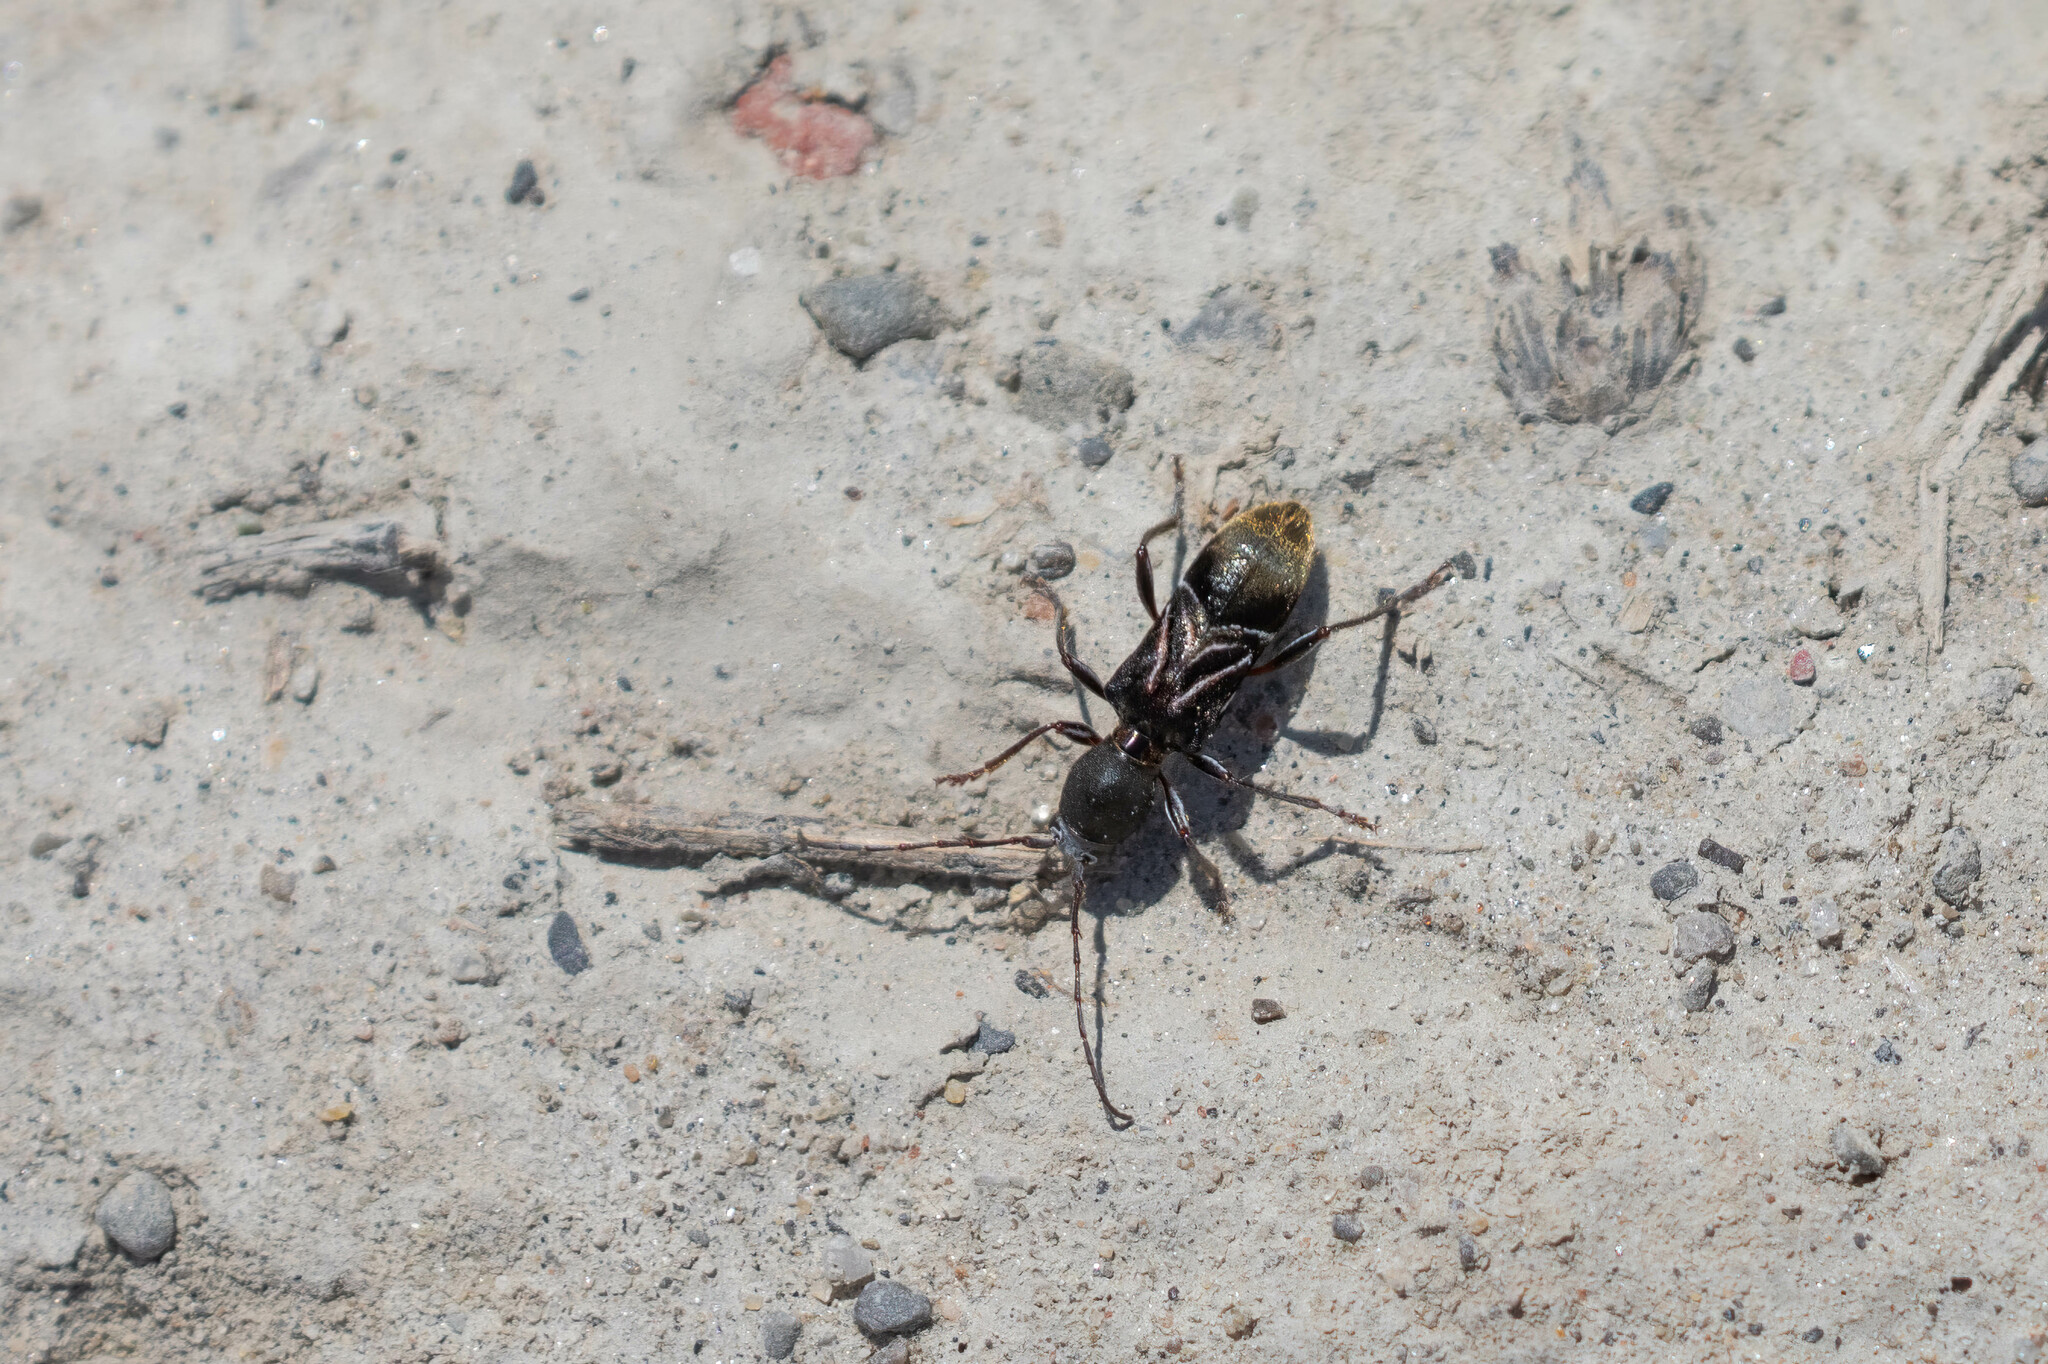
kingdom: Animalia
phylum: Arthropoda
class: Insecta
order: Coleoptera
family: Cerambycidae
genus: Cyrtophorus
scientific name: Cyrtophorus verrucosus
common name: Ant-like longhorn beetle
